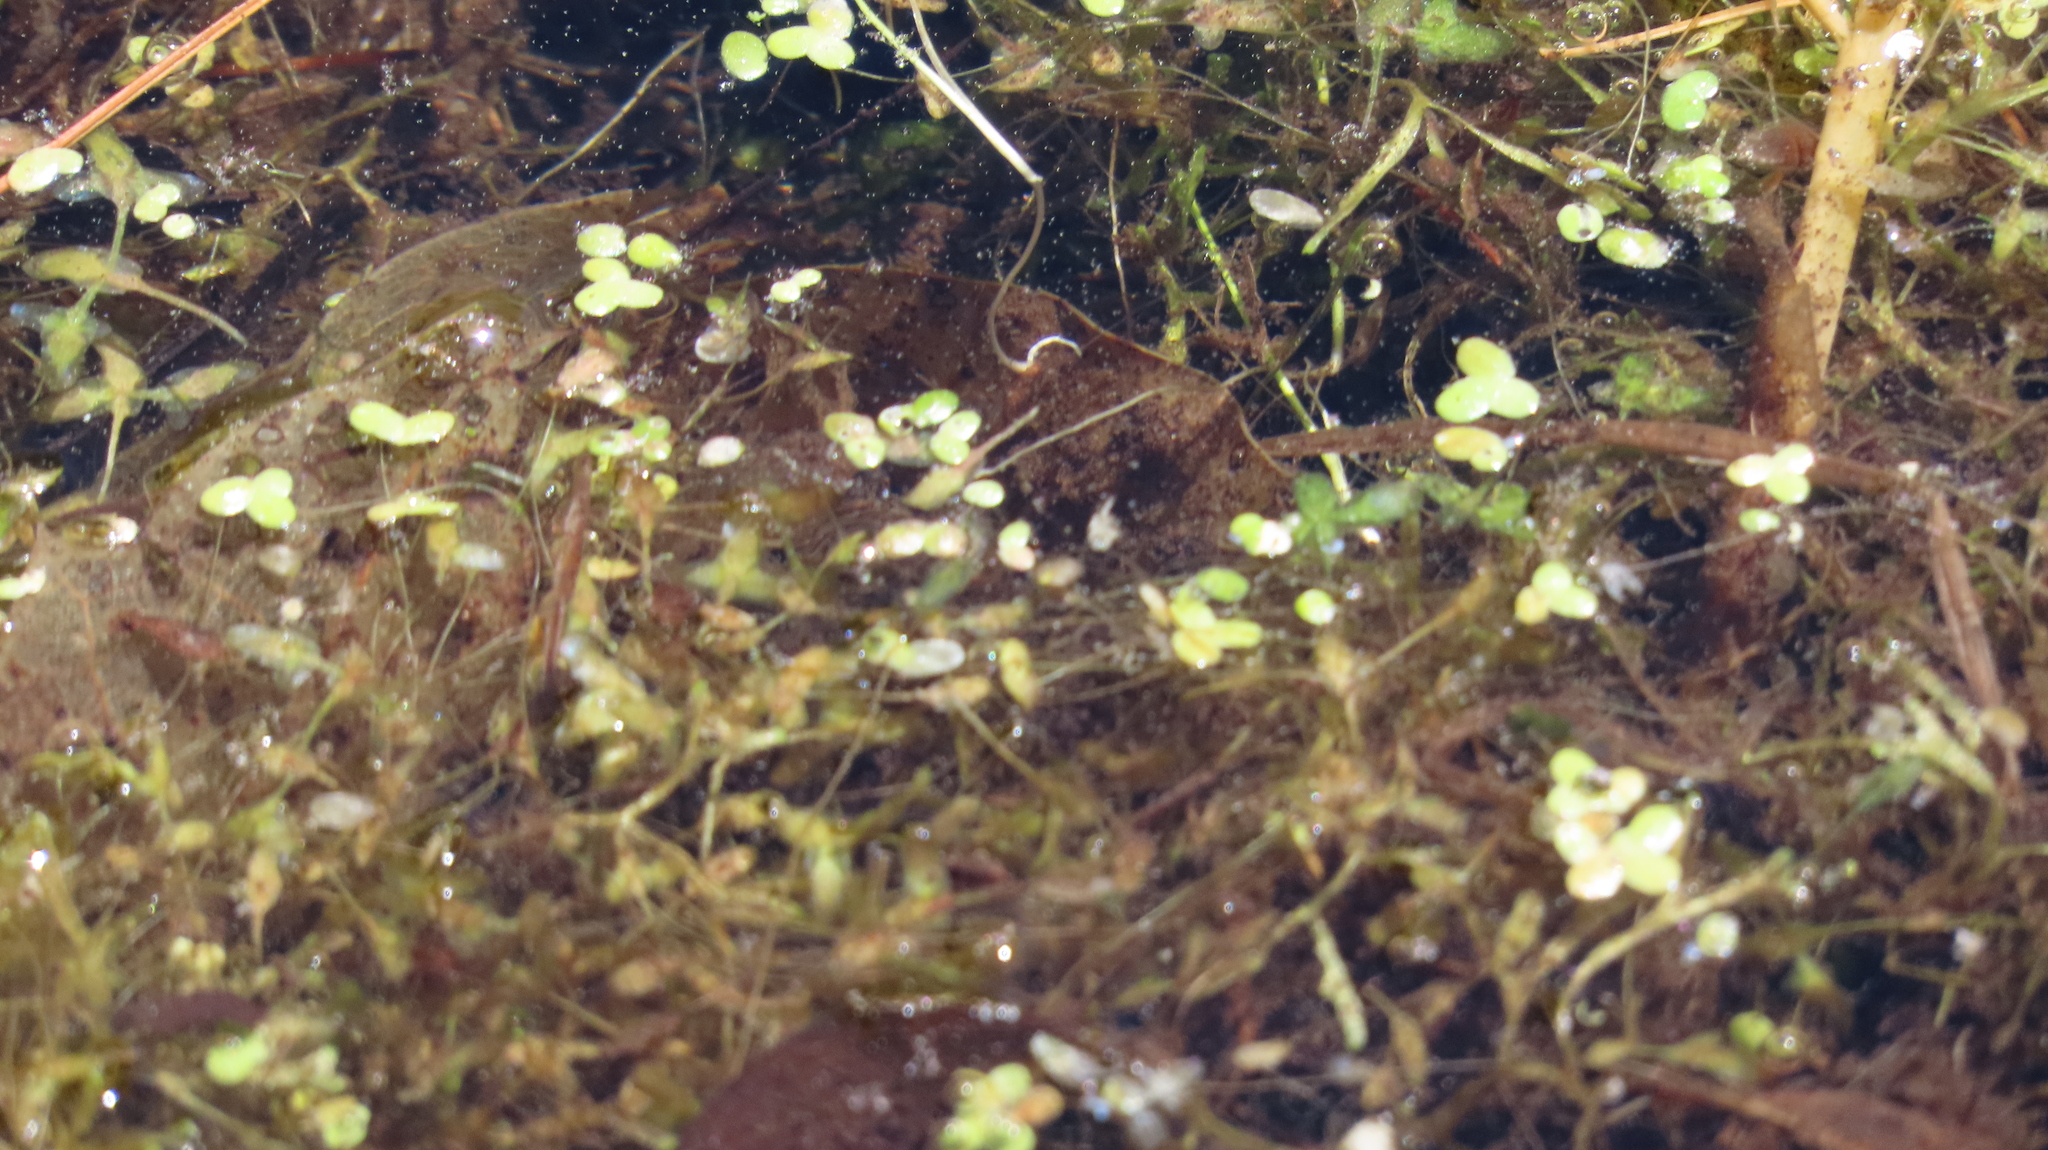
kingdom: Plantae
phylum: Tracheophyta
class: Liliopsida
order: Alismatales
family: Araceae
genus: Lemna
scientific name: Lemna minor
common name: Common duckweed
